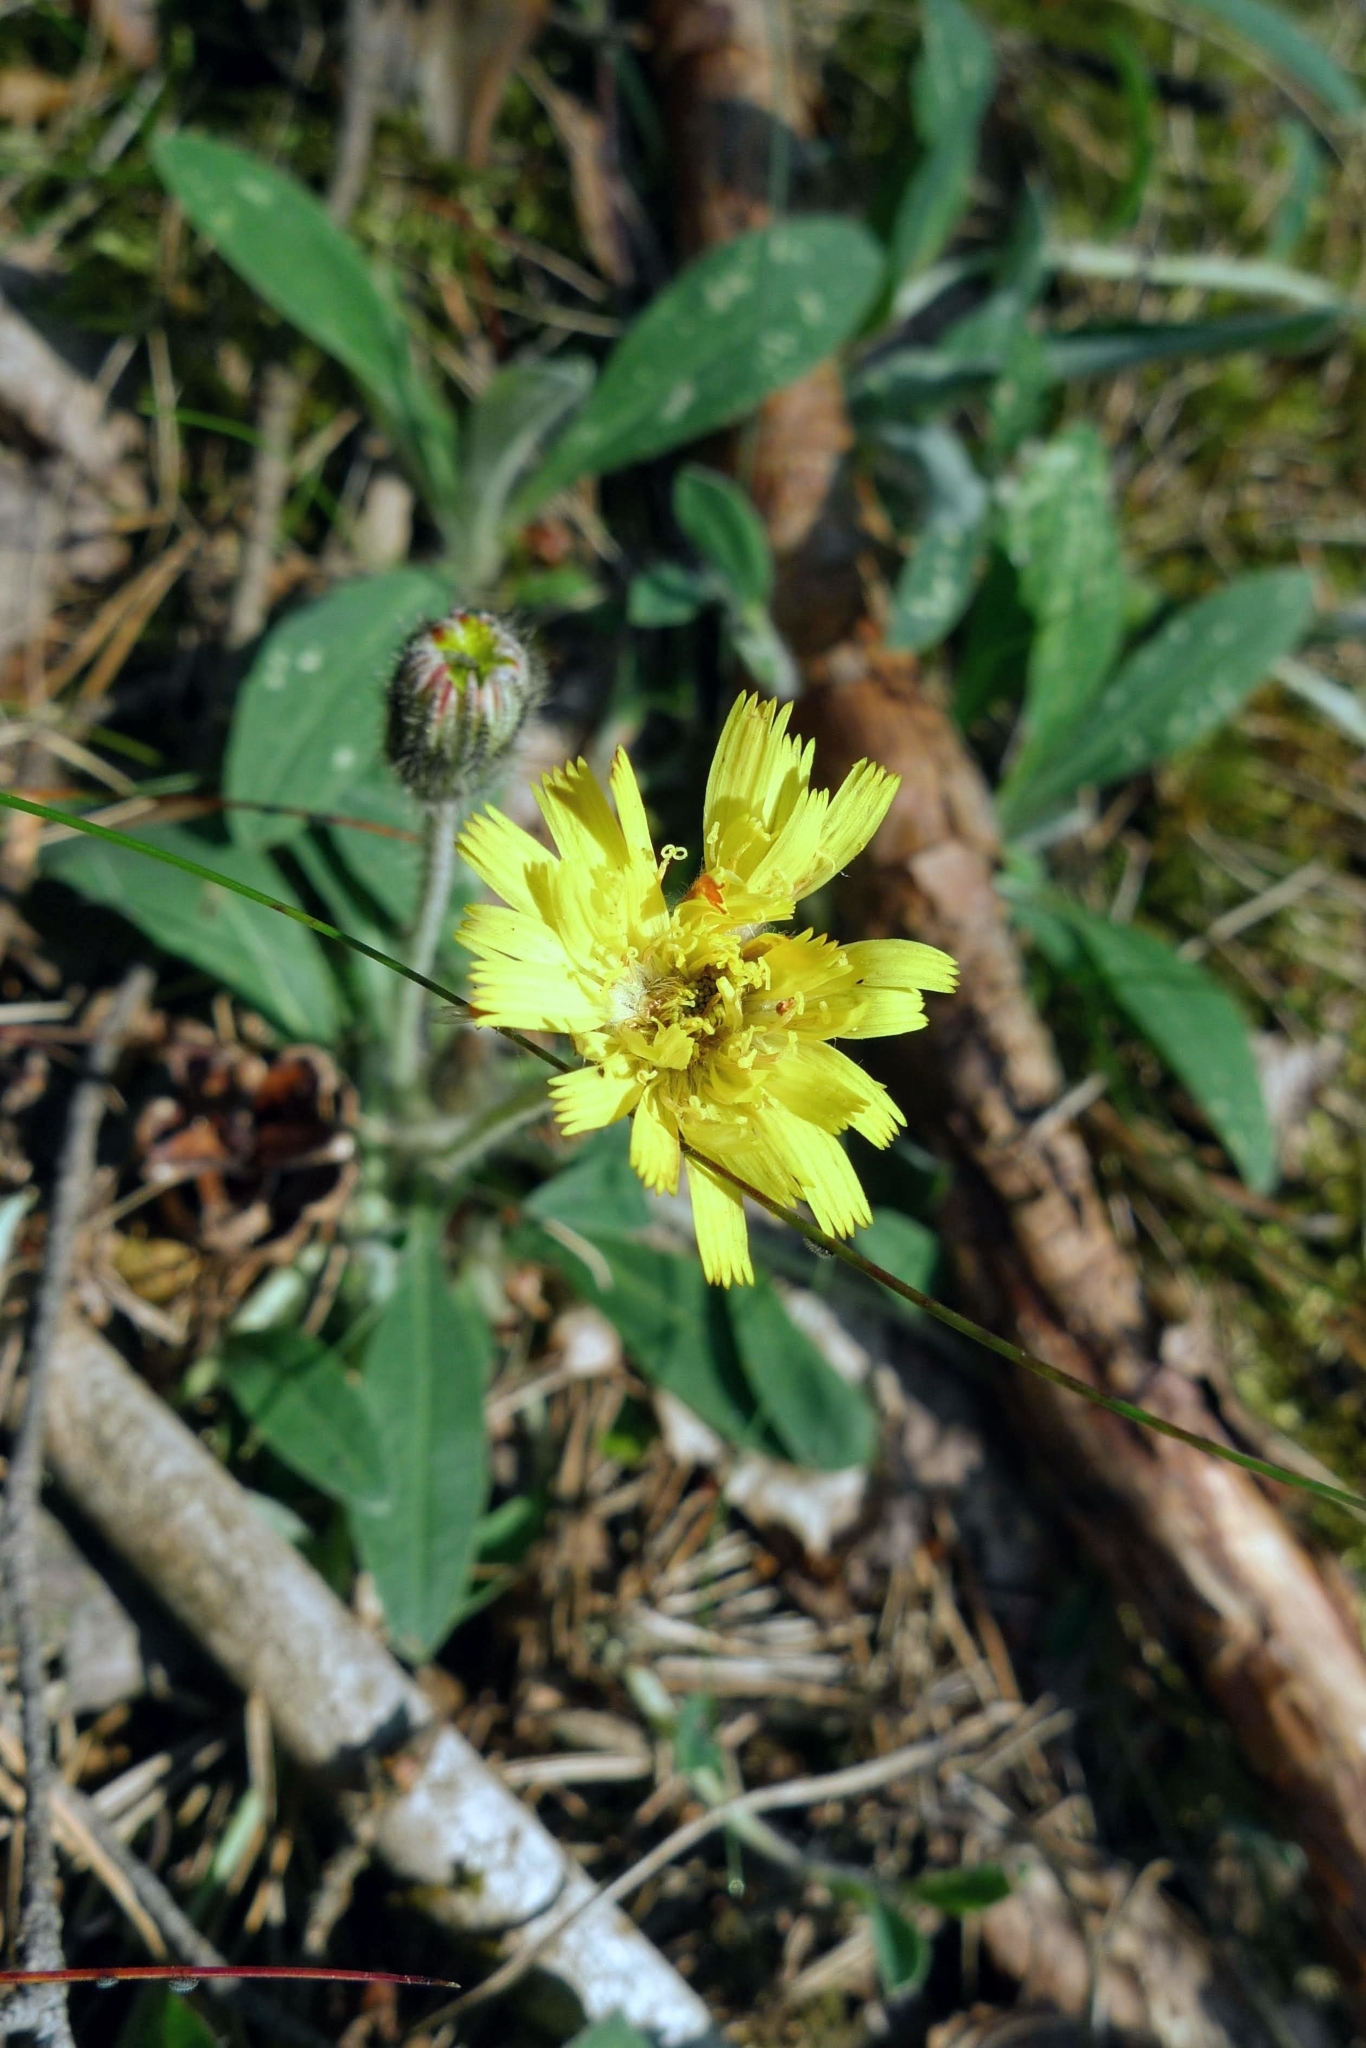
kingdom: Plantae
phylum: Tracheophyta
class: Magnoliopsida
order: Asterales
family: Asteraceae
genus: Pilosella
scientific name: Pilosella officinarum
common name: Mouse-ear hawkweed
